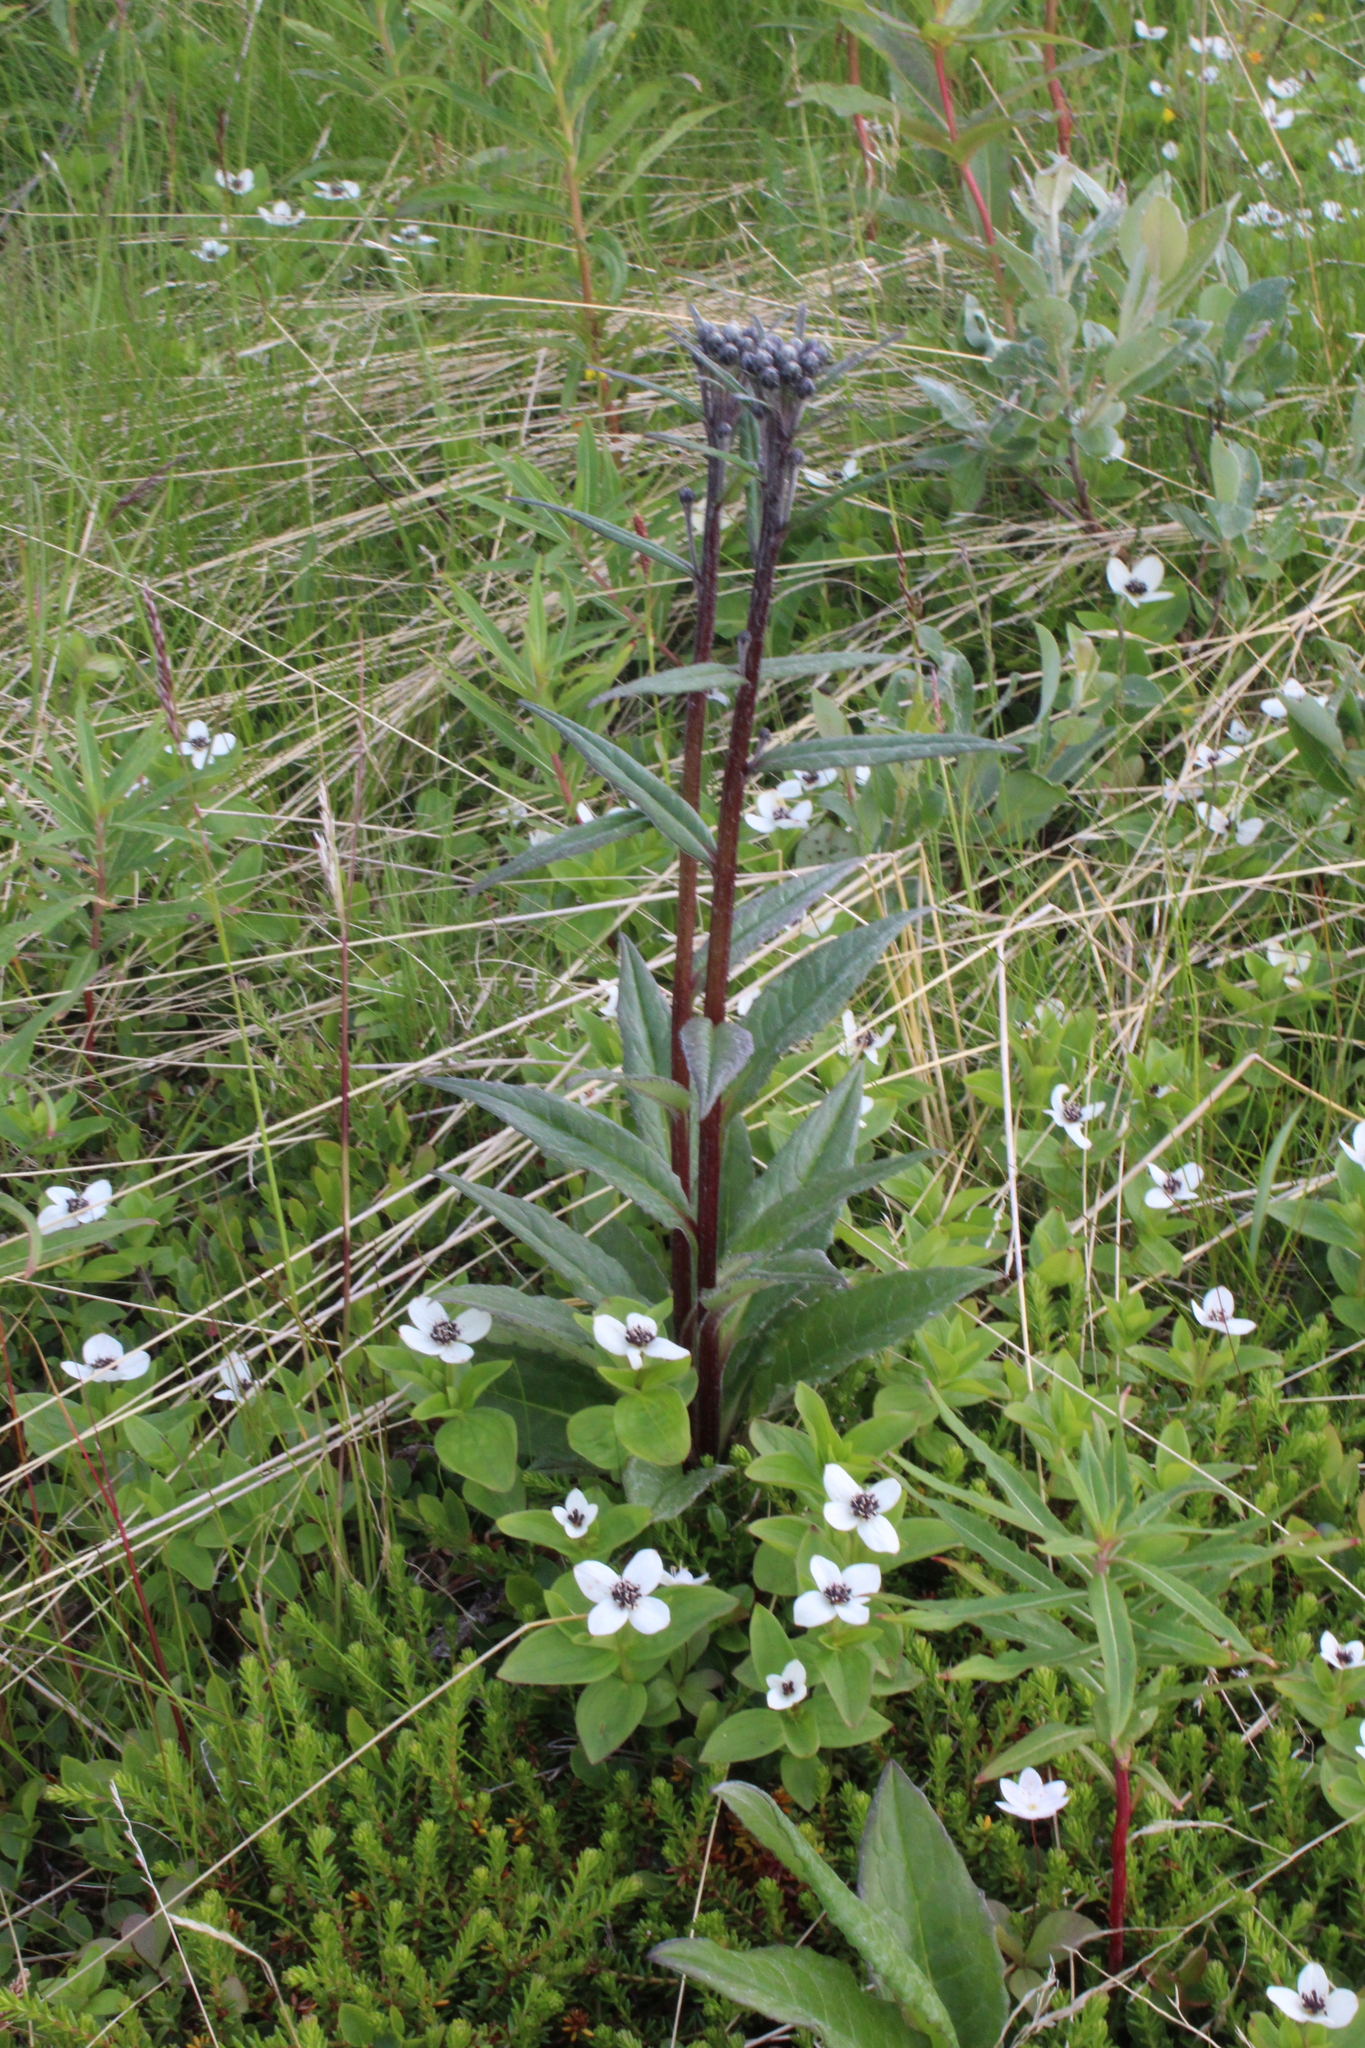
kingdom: Plantae
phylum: Tracheophyta
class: Magnoliopsida
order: Asterales
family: Asteraceae
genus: Saussurea
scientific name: Saussurea alpina
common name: Alpine saw-wort
